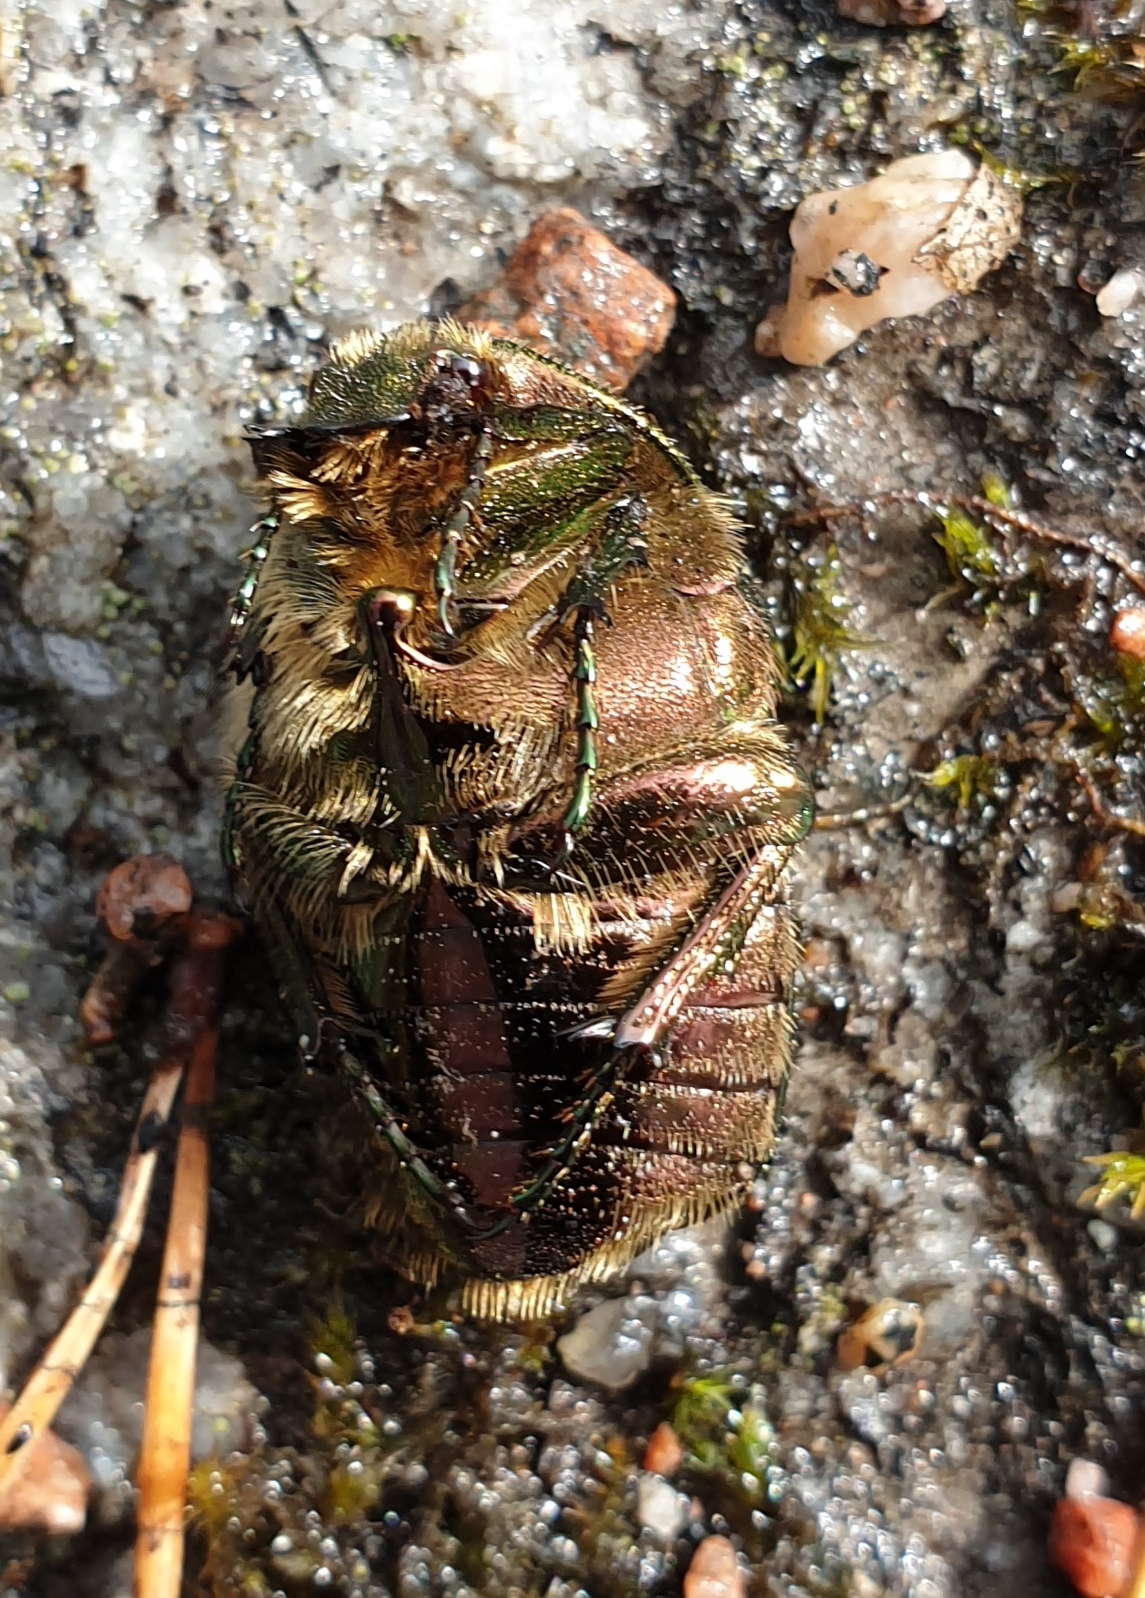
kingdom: Animalia
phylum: Arthropoda
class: Insecta
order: Coleoptera
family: Scarabaeidae
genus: Cetonia
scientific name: Cetonia aurata
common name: Rose chafer
